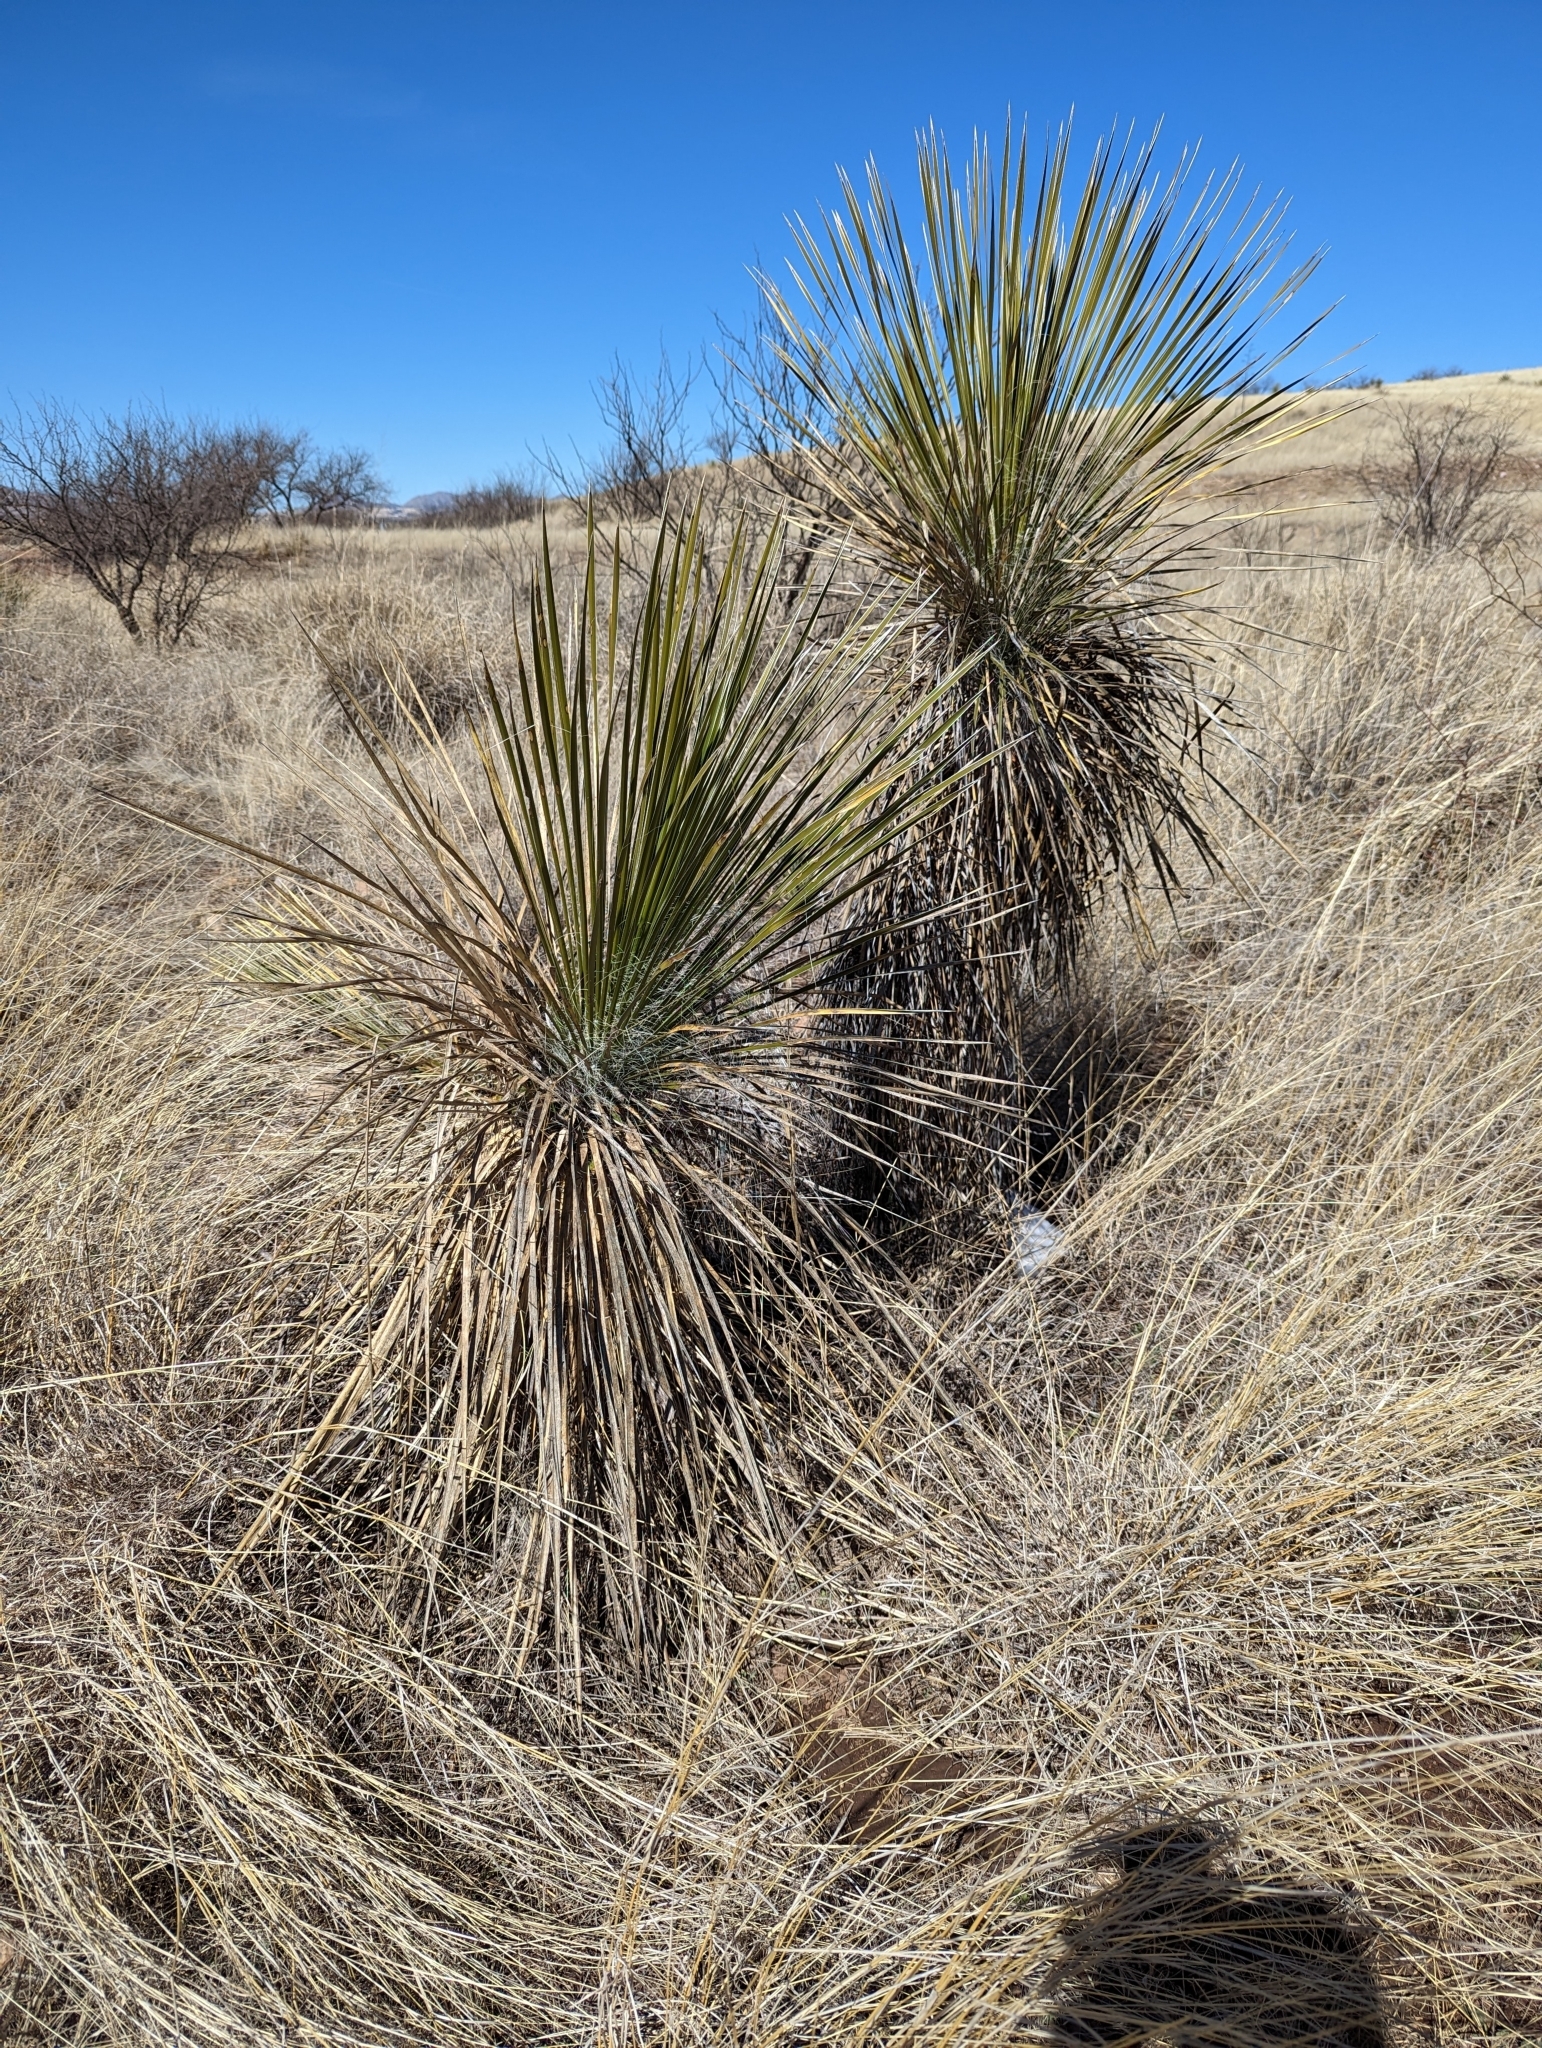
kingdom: Plantae
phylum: Tracheophyta
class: Liliopsida
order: Asparagales
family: Asparagaceae
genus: Yucca
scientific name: Yucca elata
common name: Palmella
